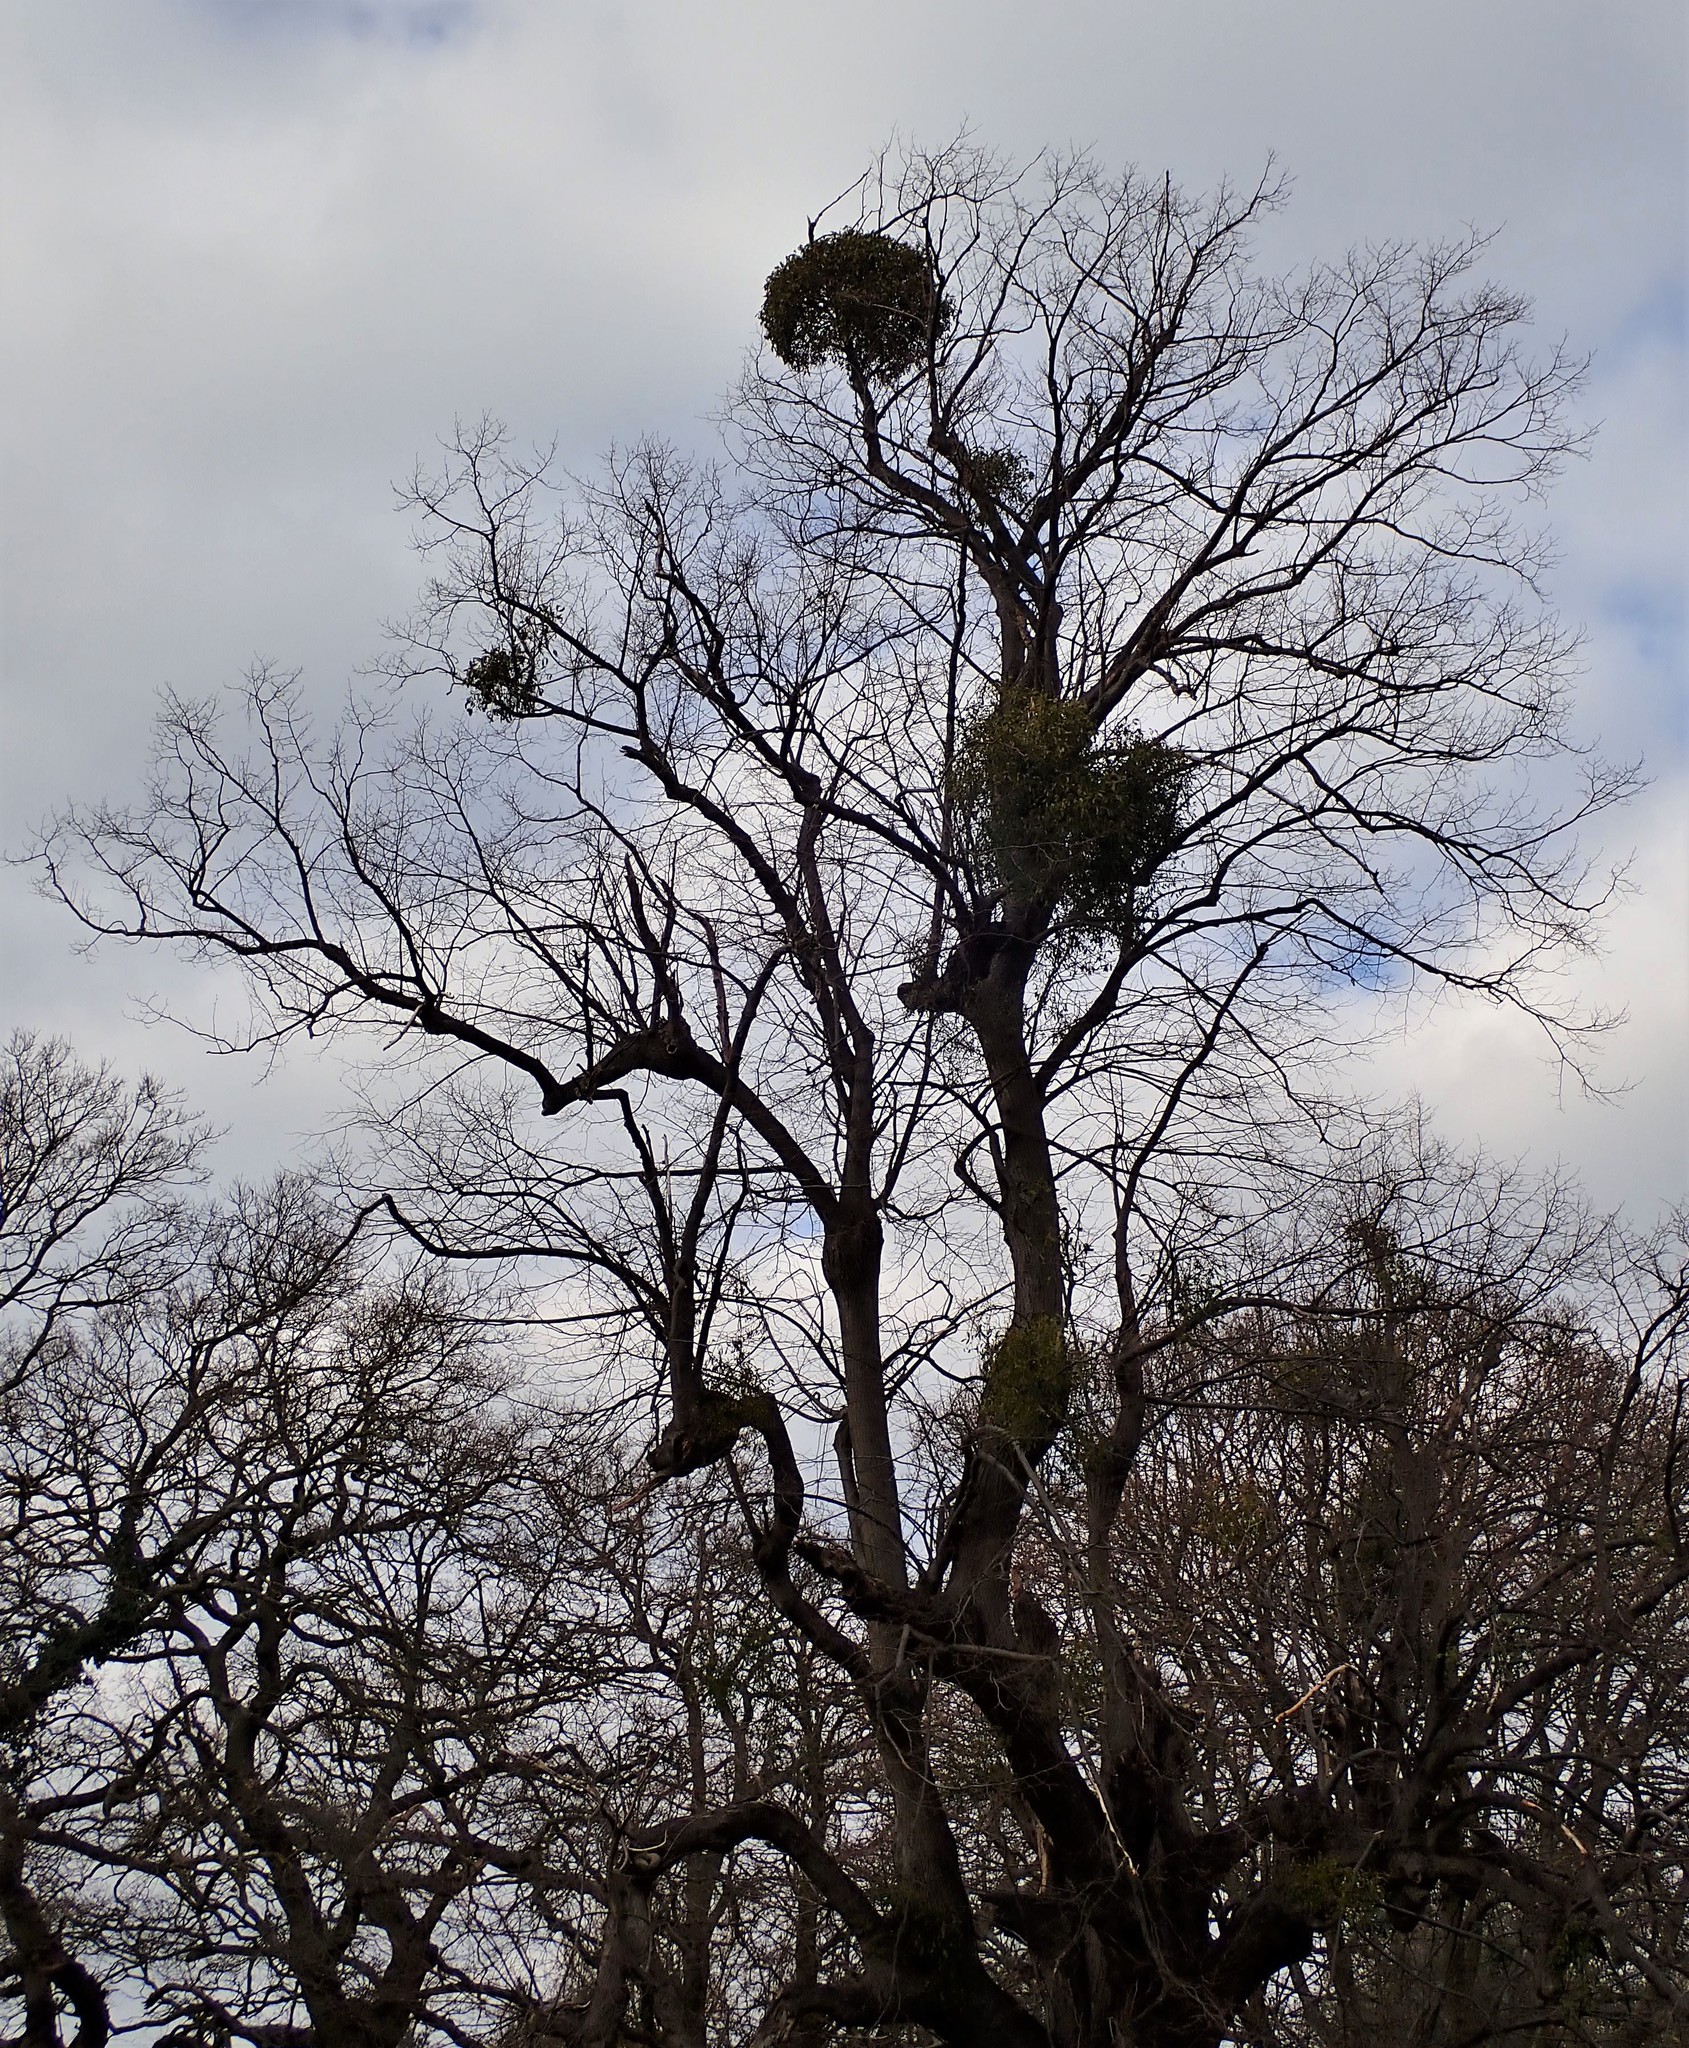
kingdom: Plantae
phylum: Tracheophyta
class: Magnoliopsida
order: Santalales
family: Viscaceae
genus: Viscum
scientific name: Viscum album
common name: Mistletoe
